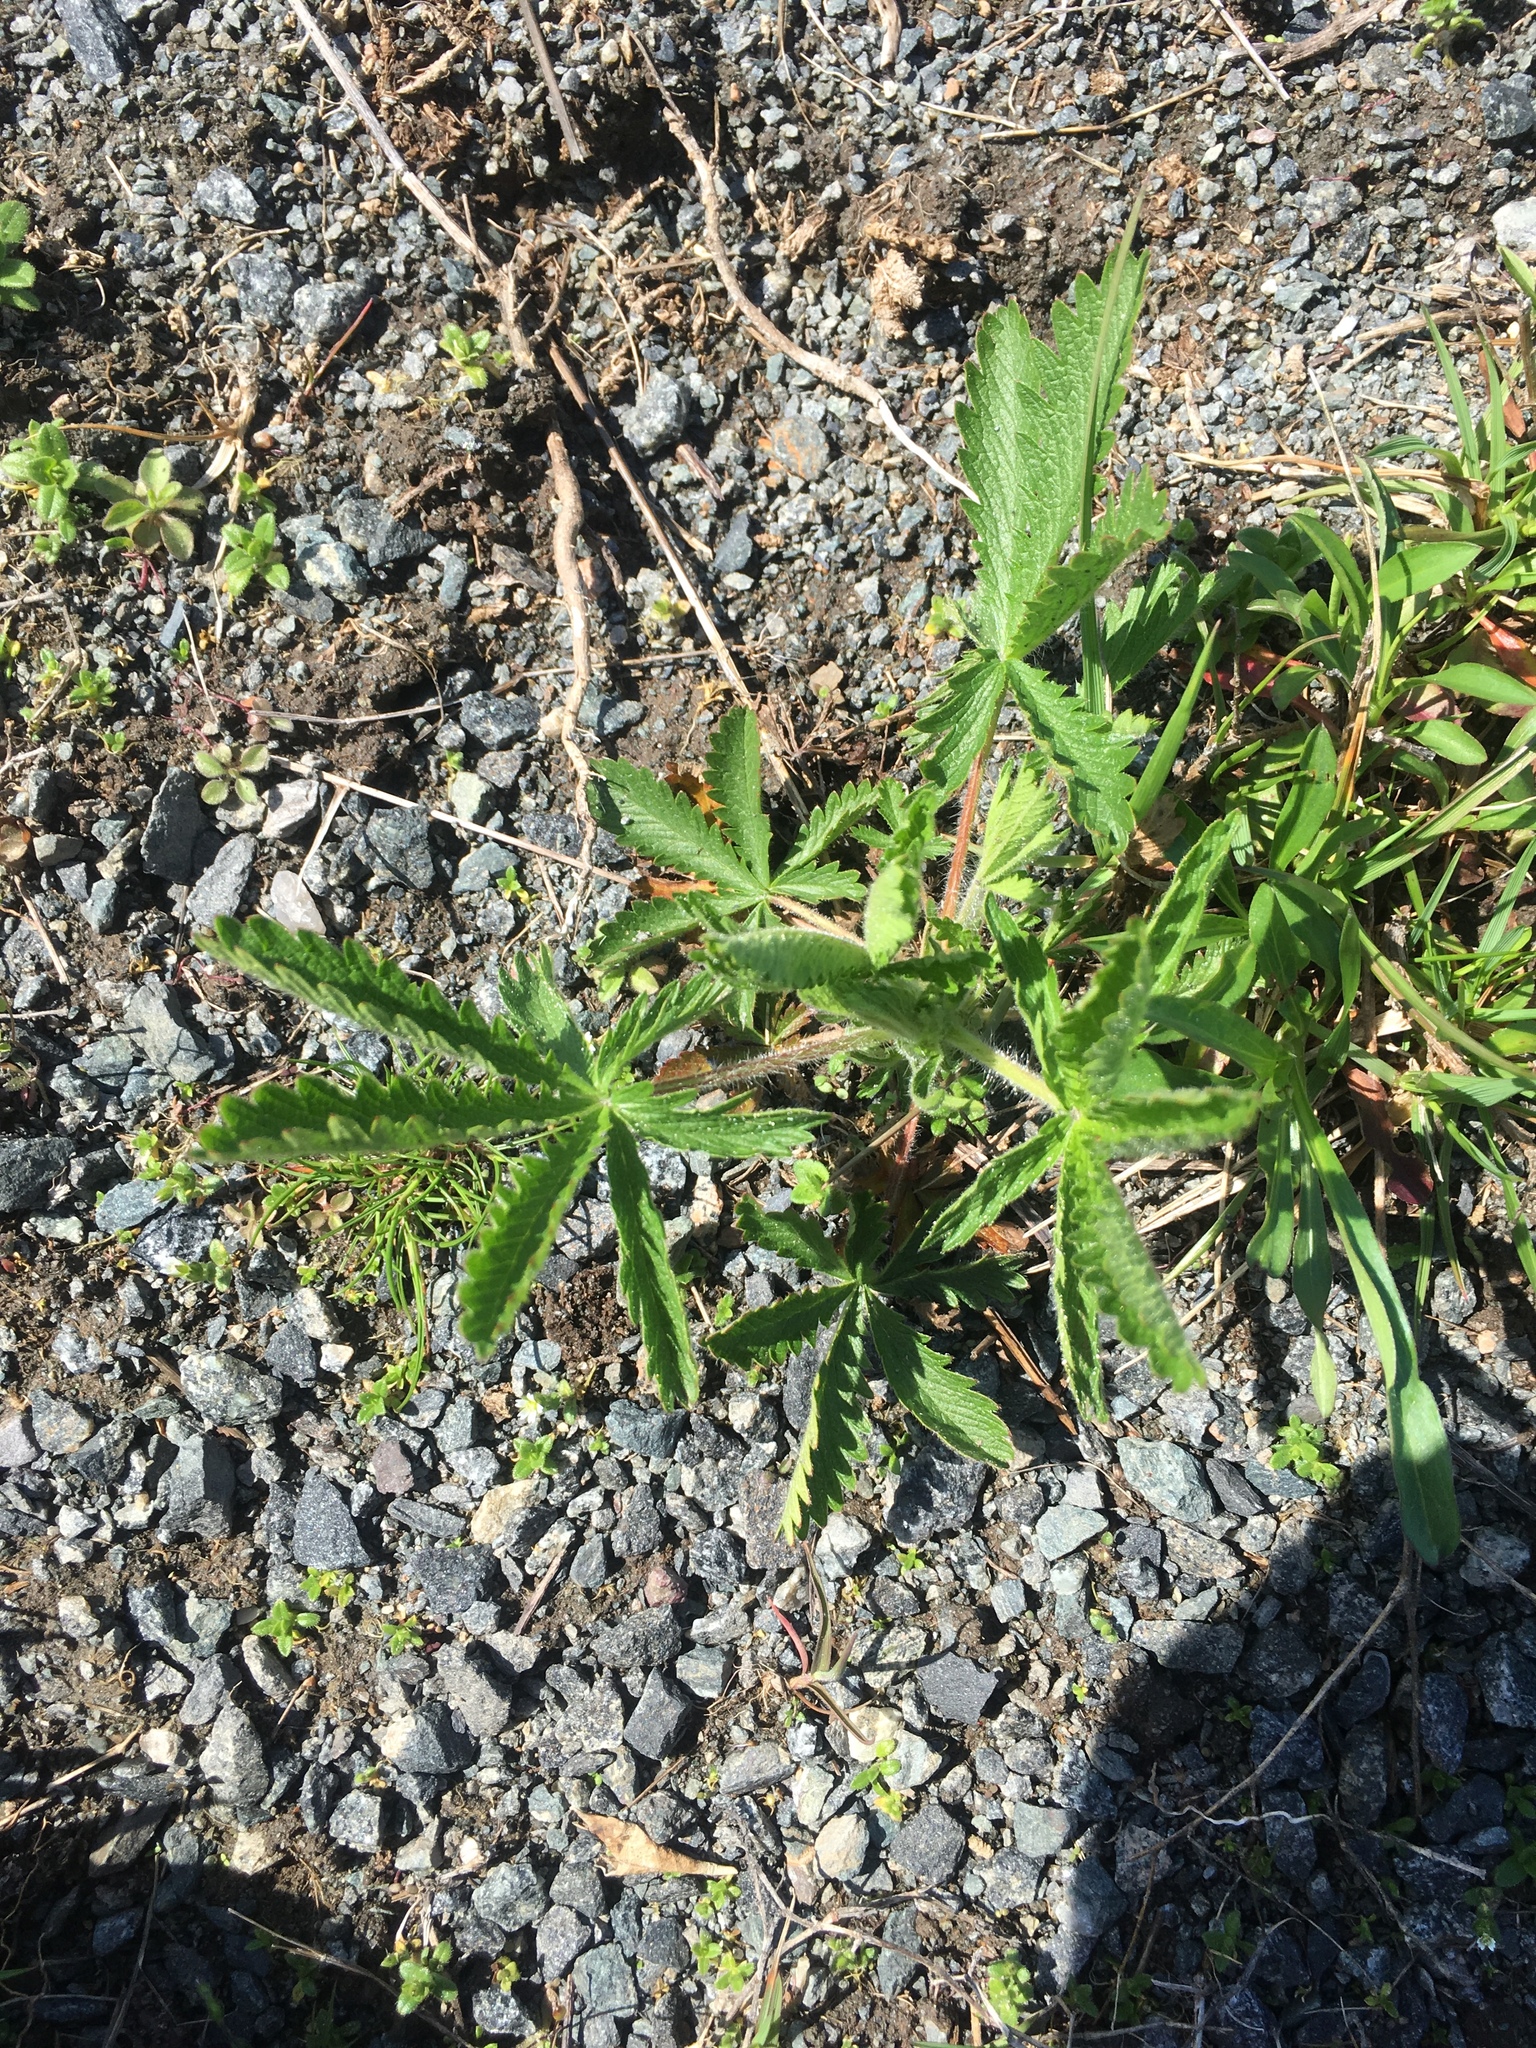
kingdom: Plantae
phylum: Tracheophyta
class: Magnoliopsida
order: Rosales
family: Rosaceae
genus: Potentilla
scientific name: Potentilla recta
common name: Sulphur cinquefoil
